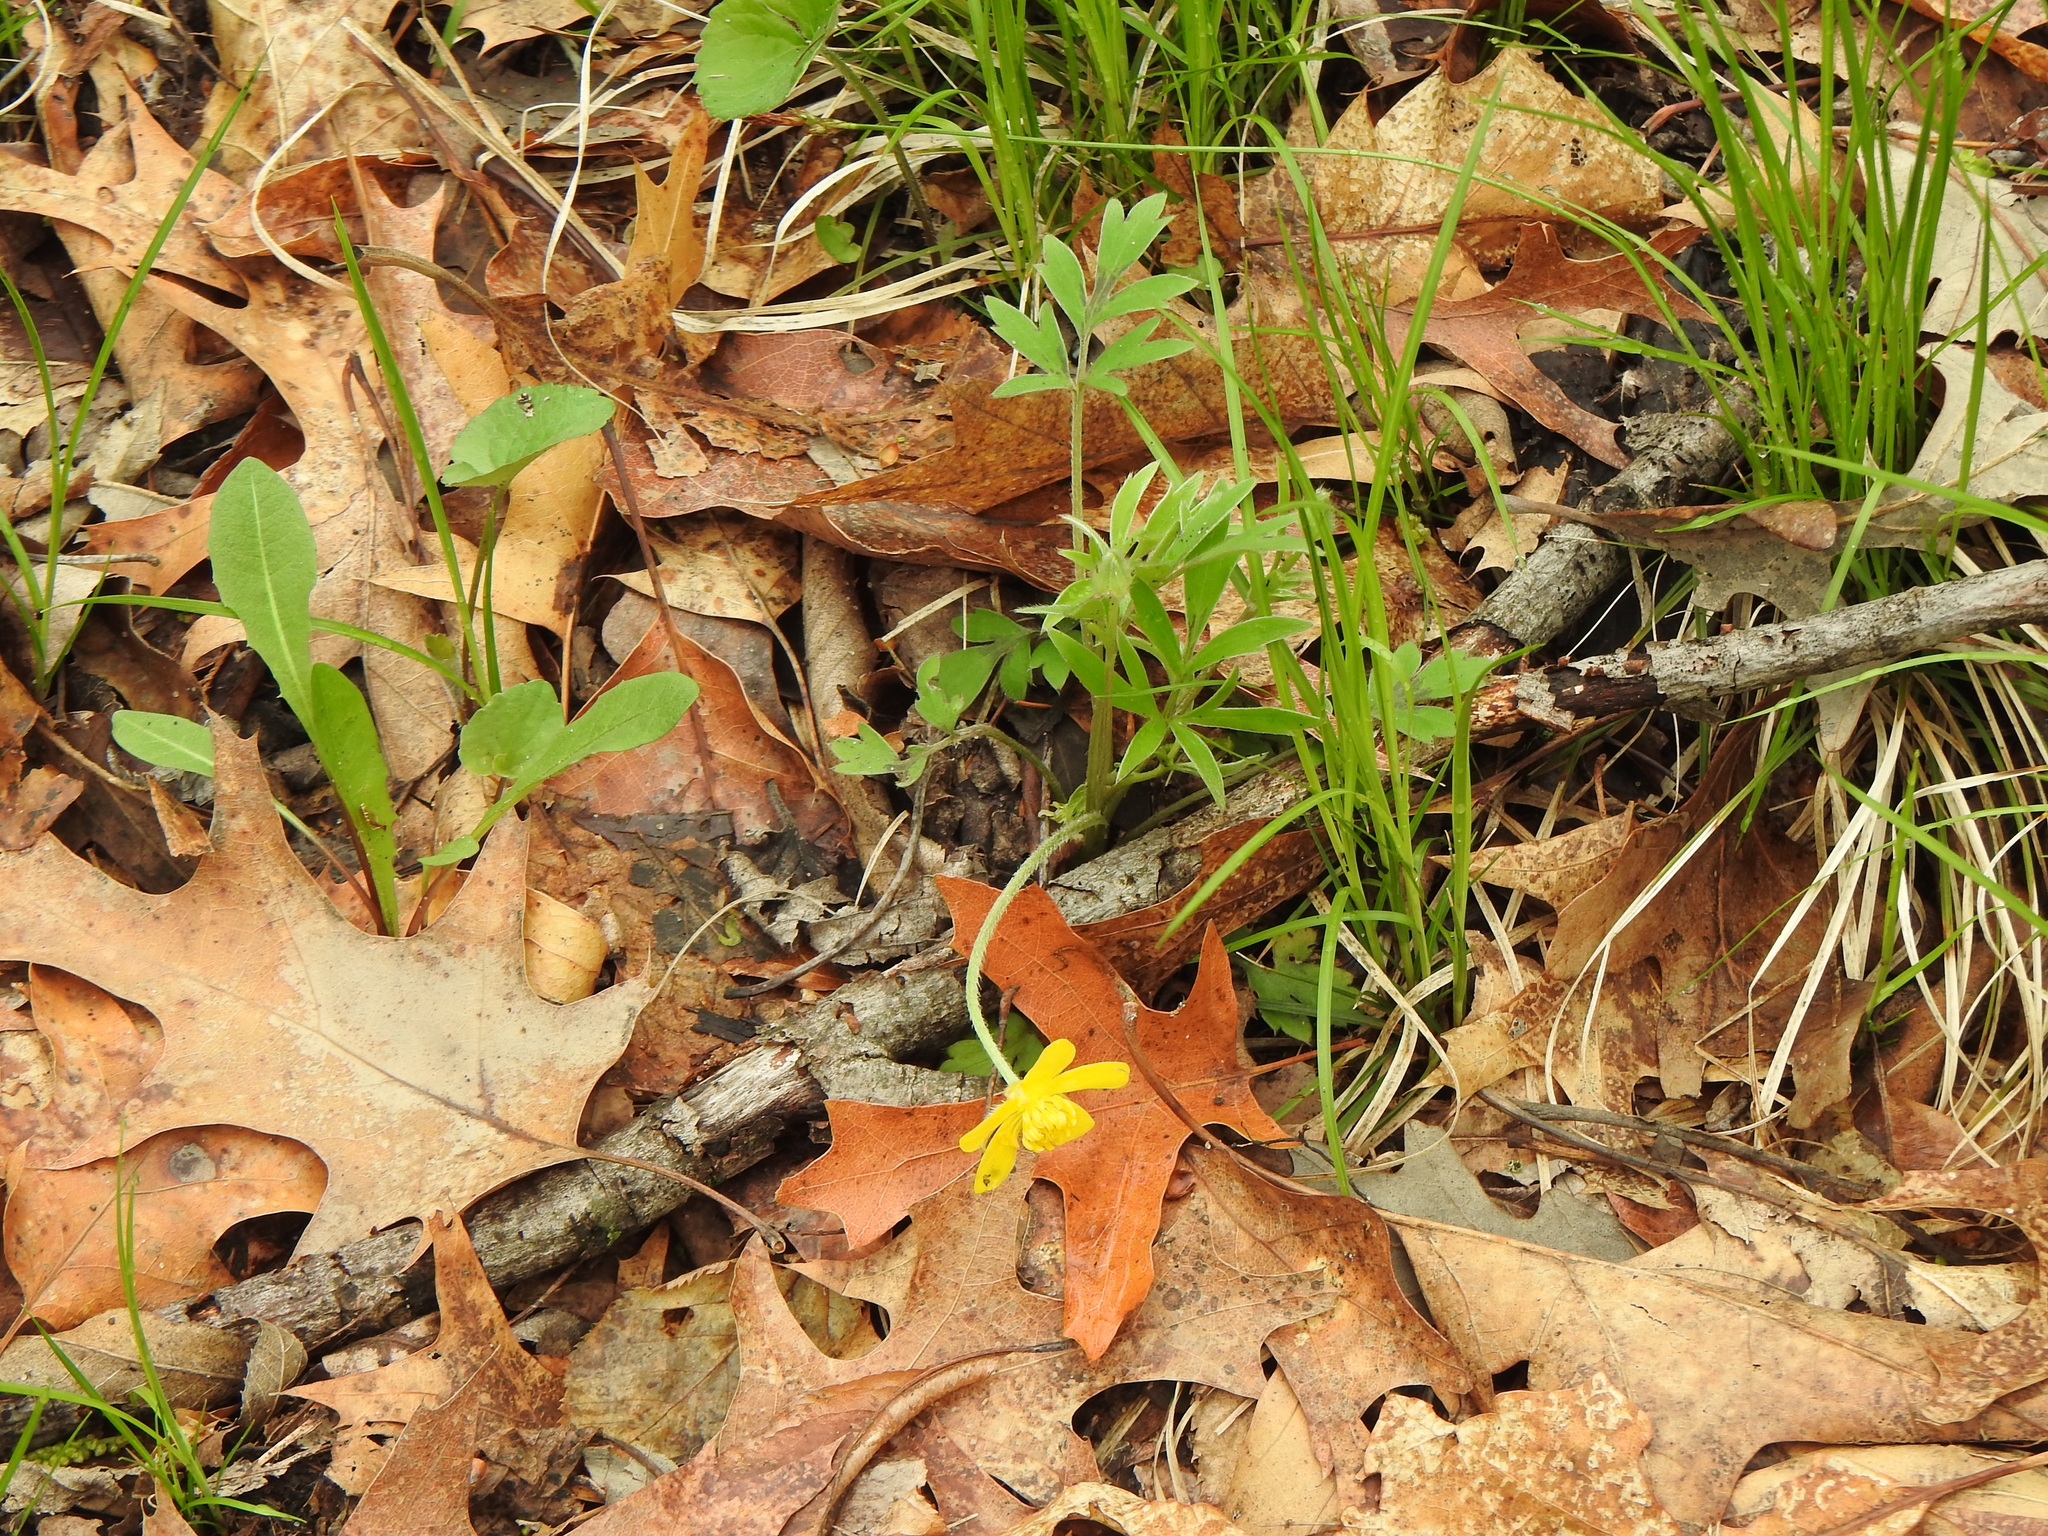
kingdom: Plantae
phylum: Tracheophyta
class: Magnoliopsida
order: Ranunculales
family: Ranunculaceae
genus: Ranunculus
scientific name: Ranunculus fascicularis
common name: Early buttercup
